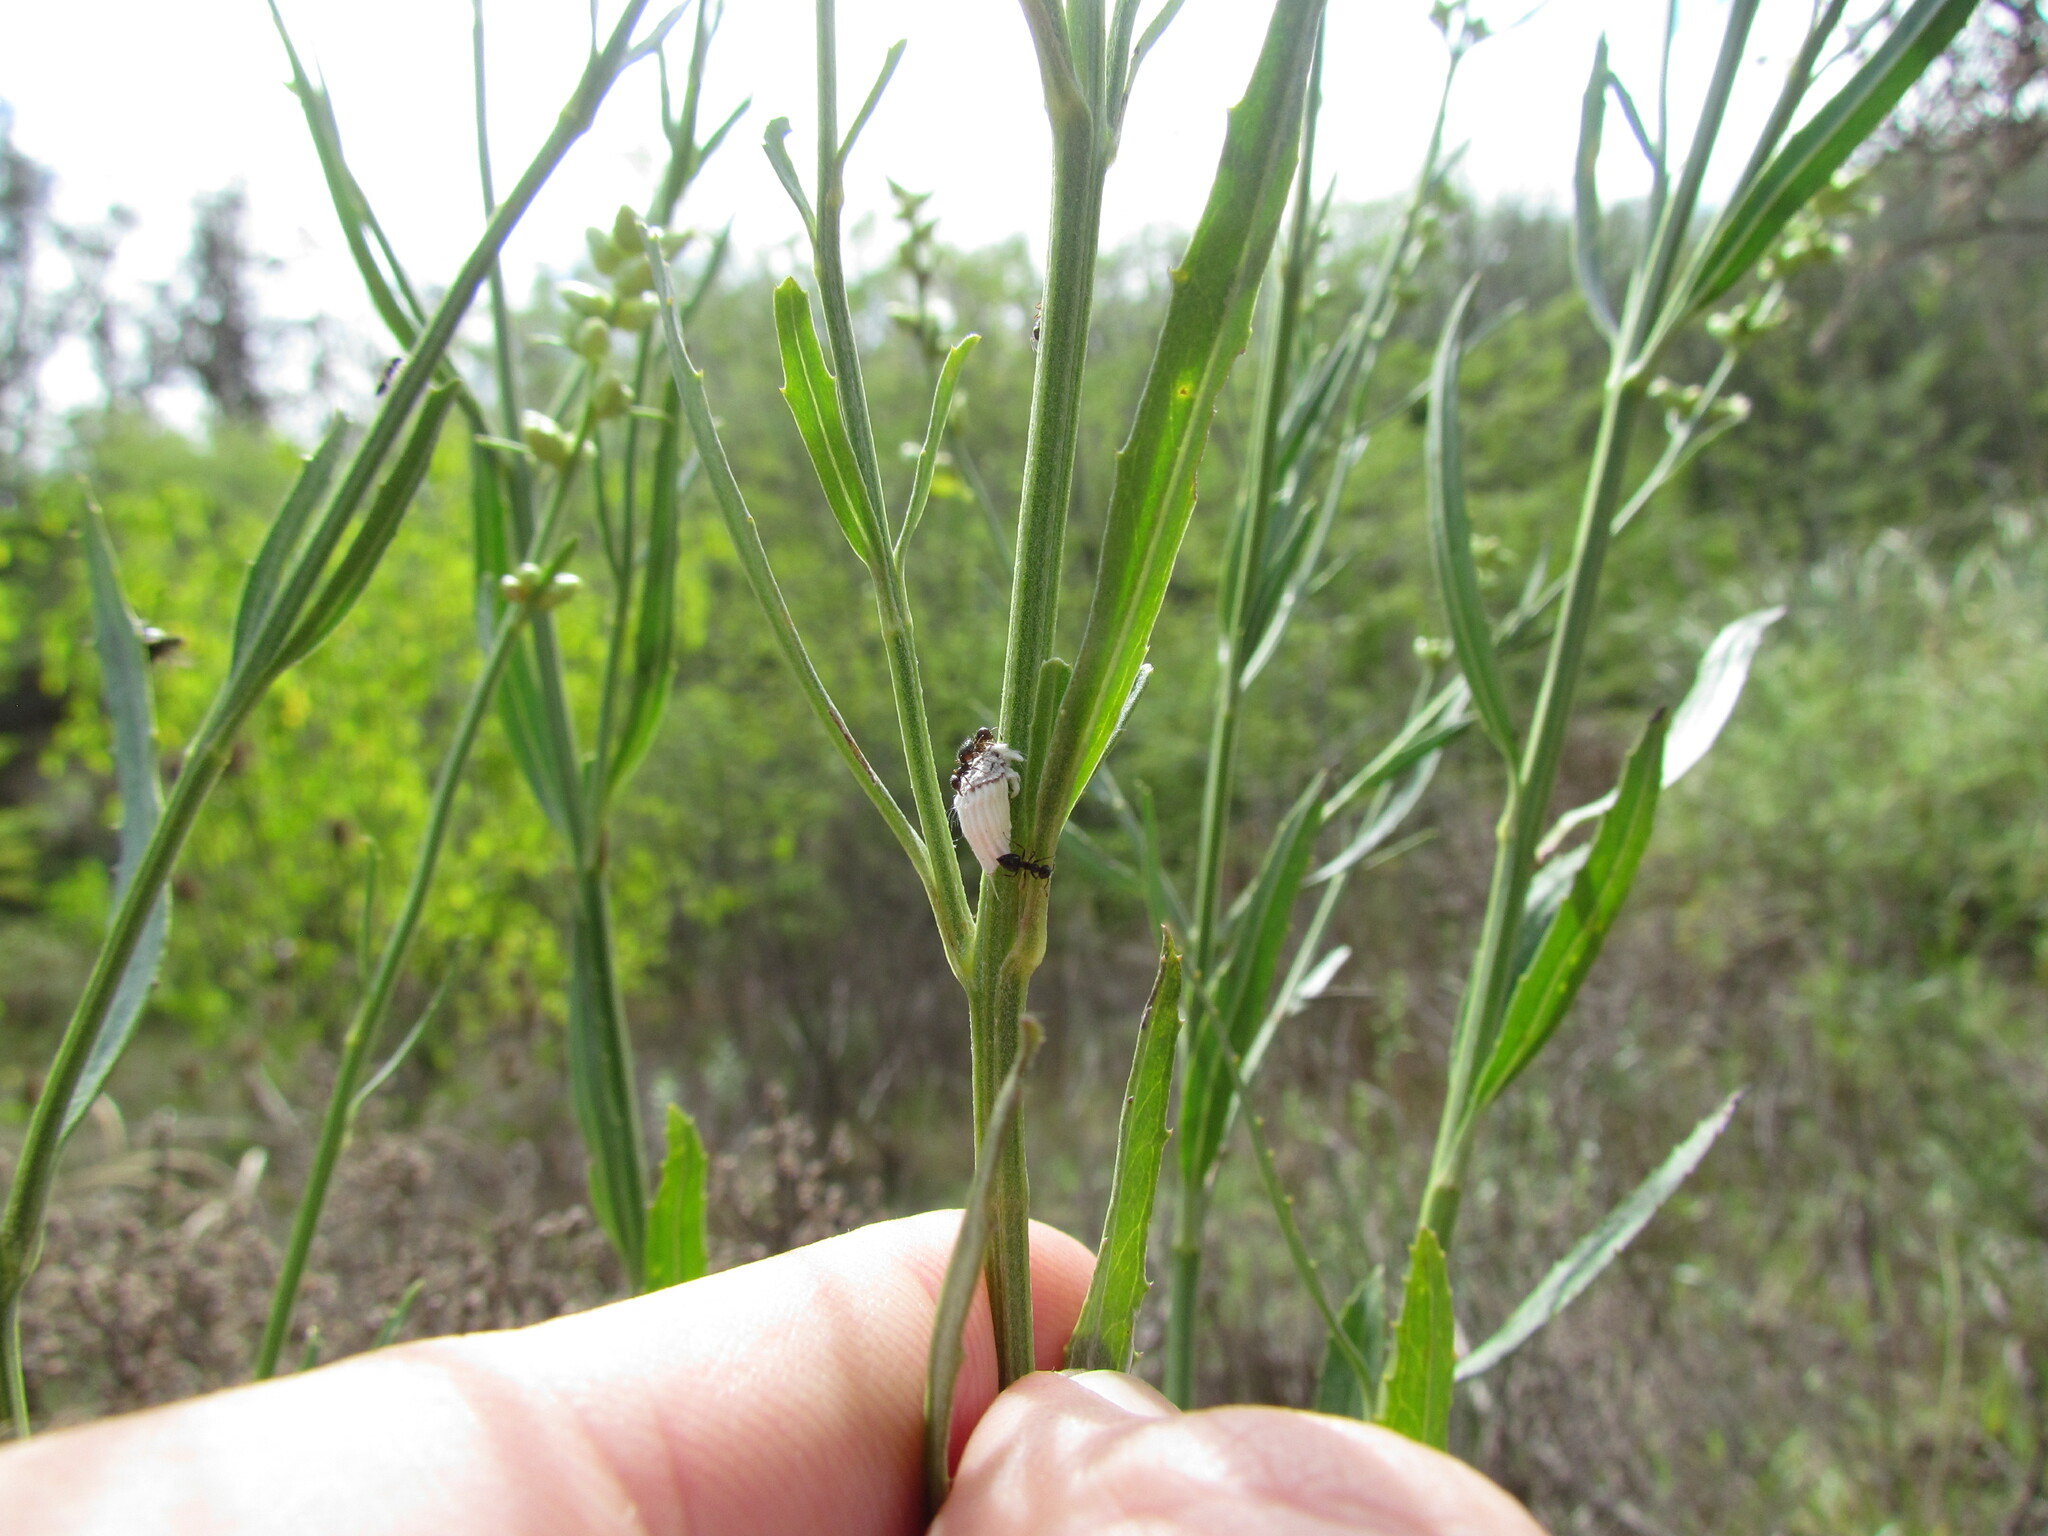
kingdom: Animalia
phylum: Arthropoda
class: Insecta
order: Hemiptera
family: Margarodidae
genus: Icerya
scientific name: Icerya purchasi
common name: Cottony cushion scale
